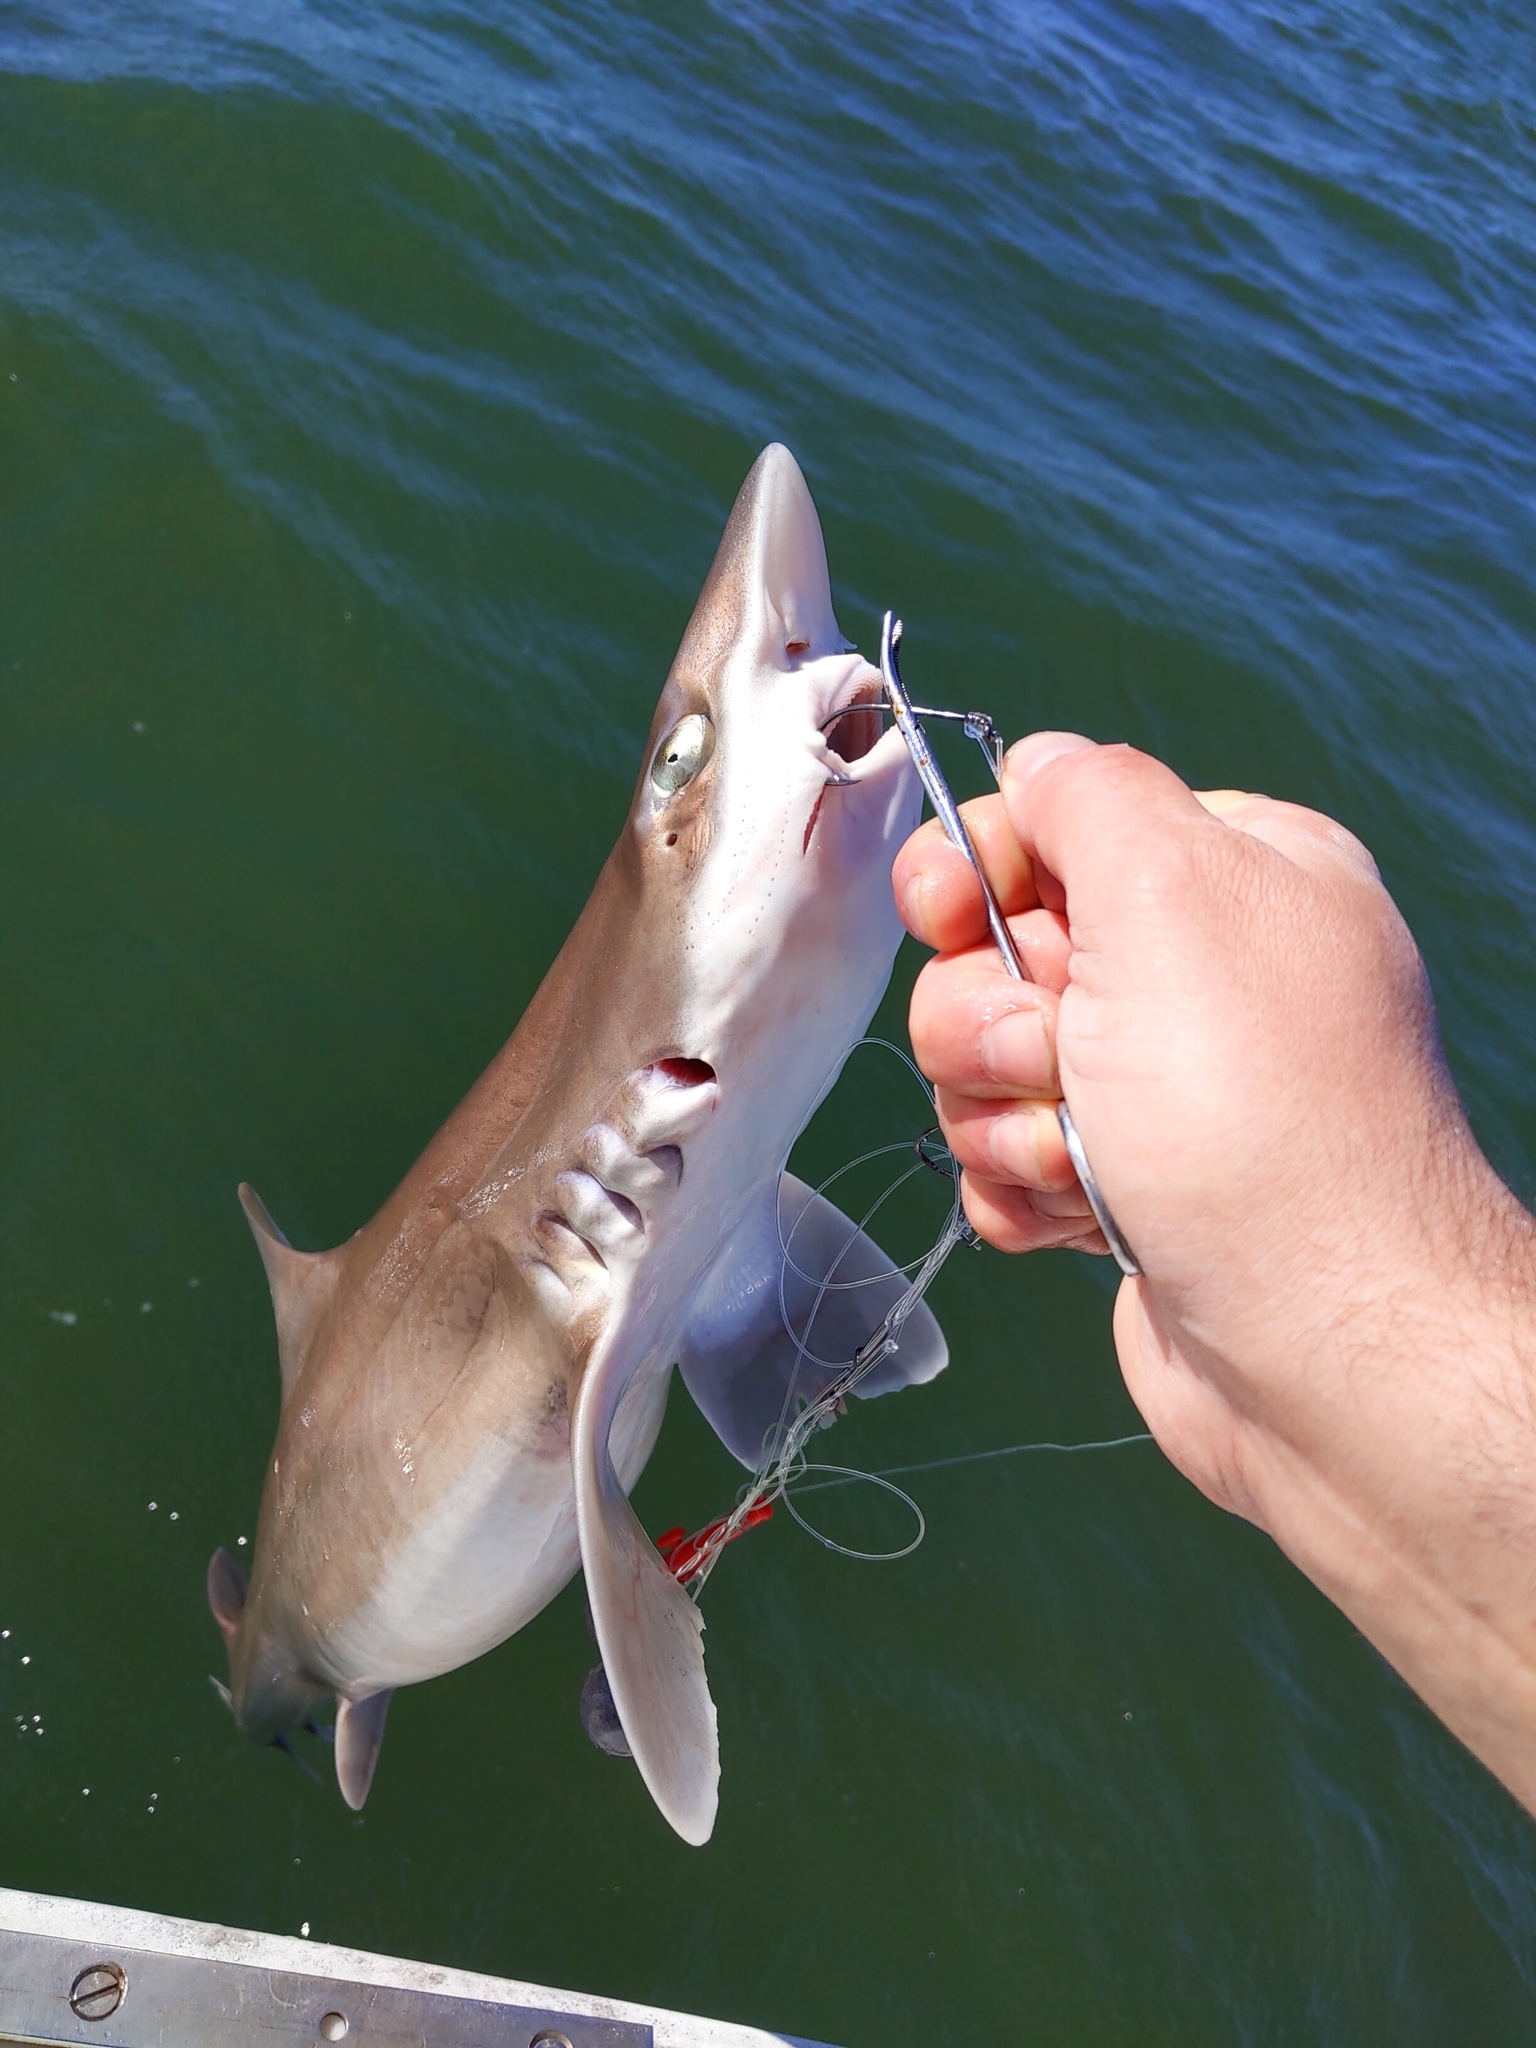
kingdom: Animalia
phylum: Chordata
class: Elasmobranchii
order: Carcharhiniformes
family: Triakidae
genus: Mustelus
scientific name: Mustelus henlei
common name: Brown smooth-hound
